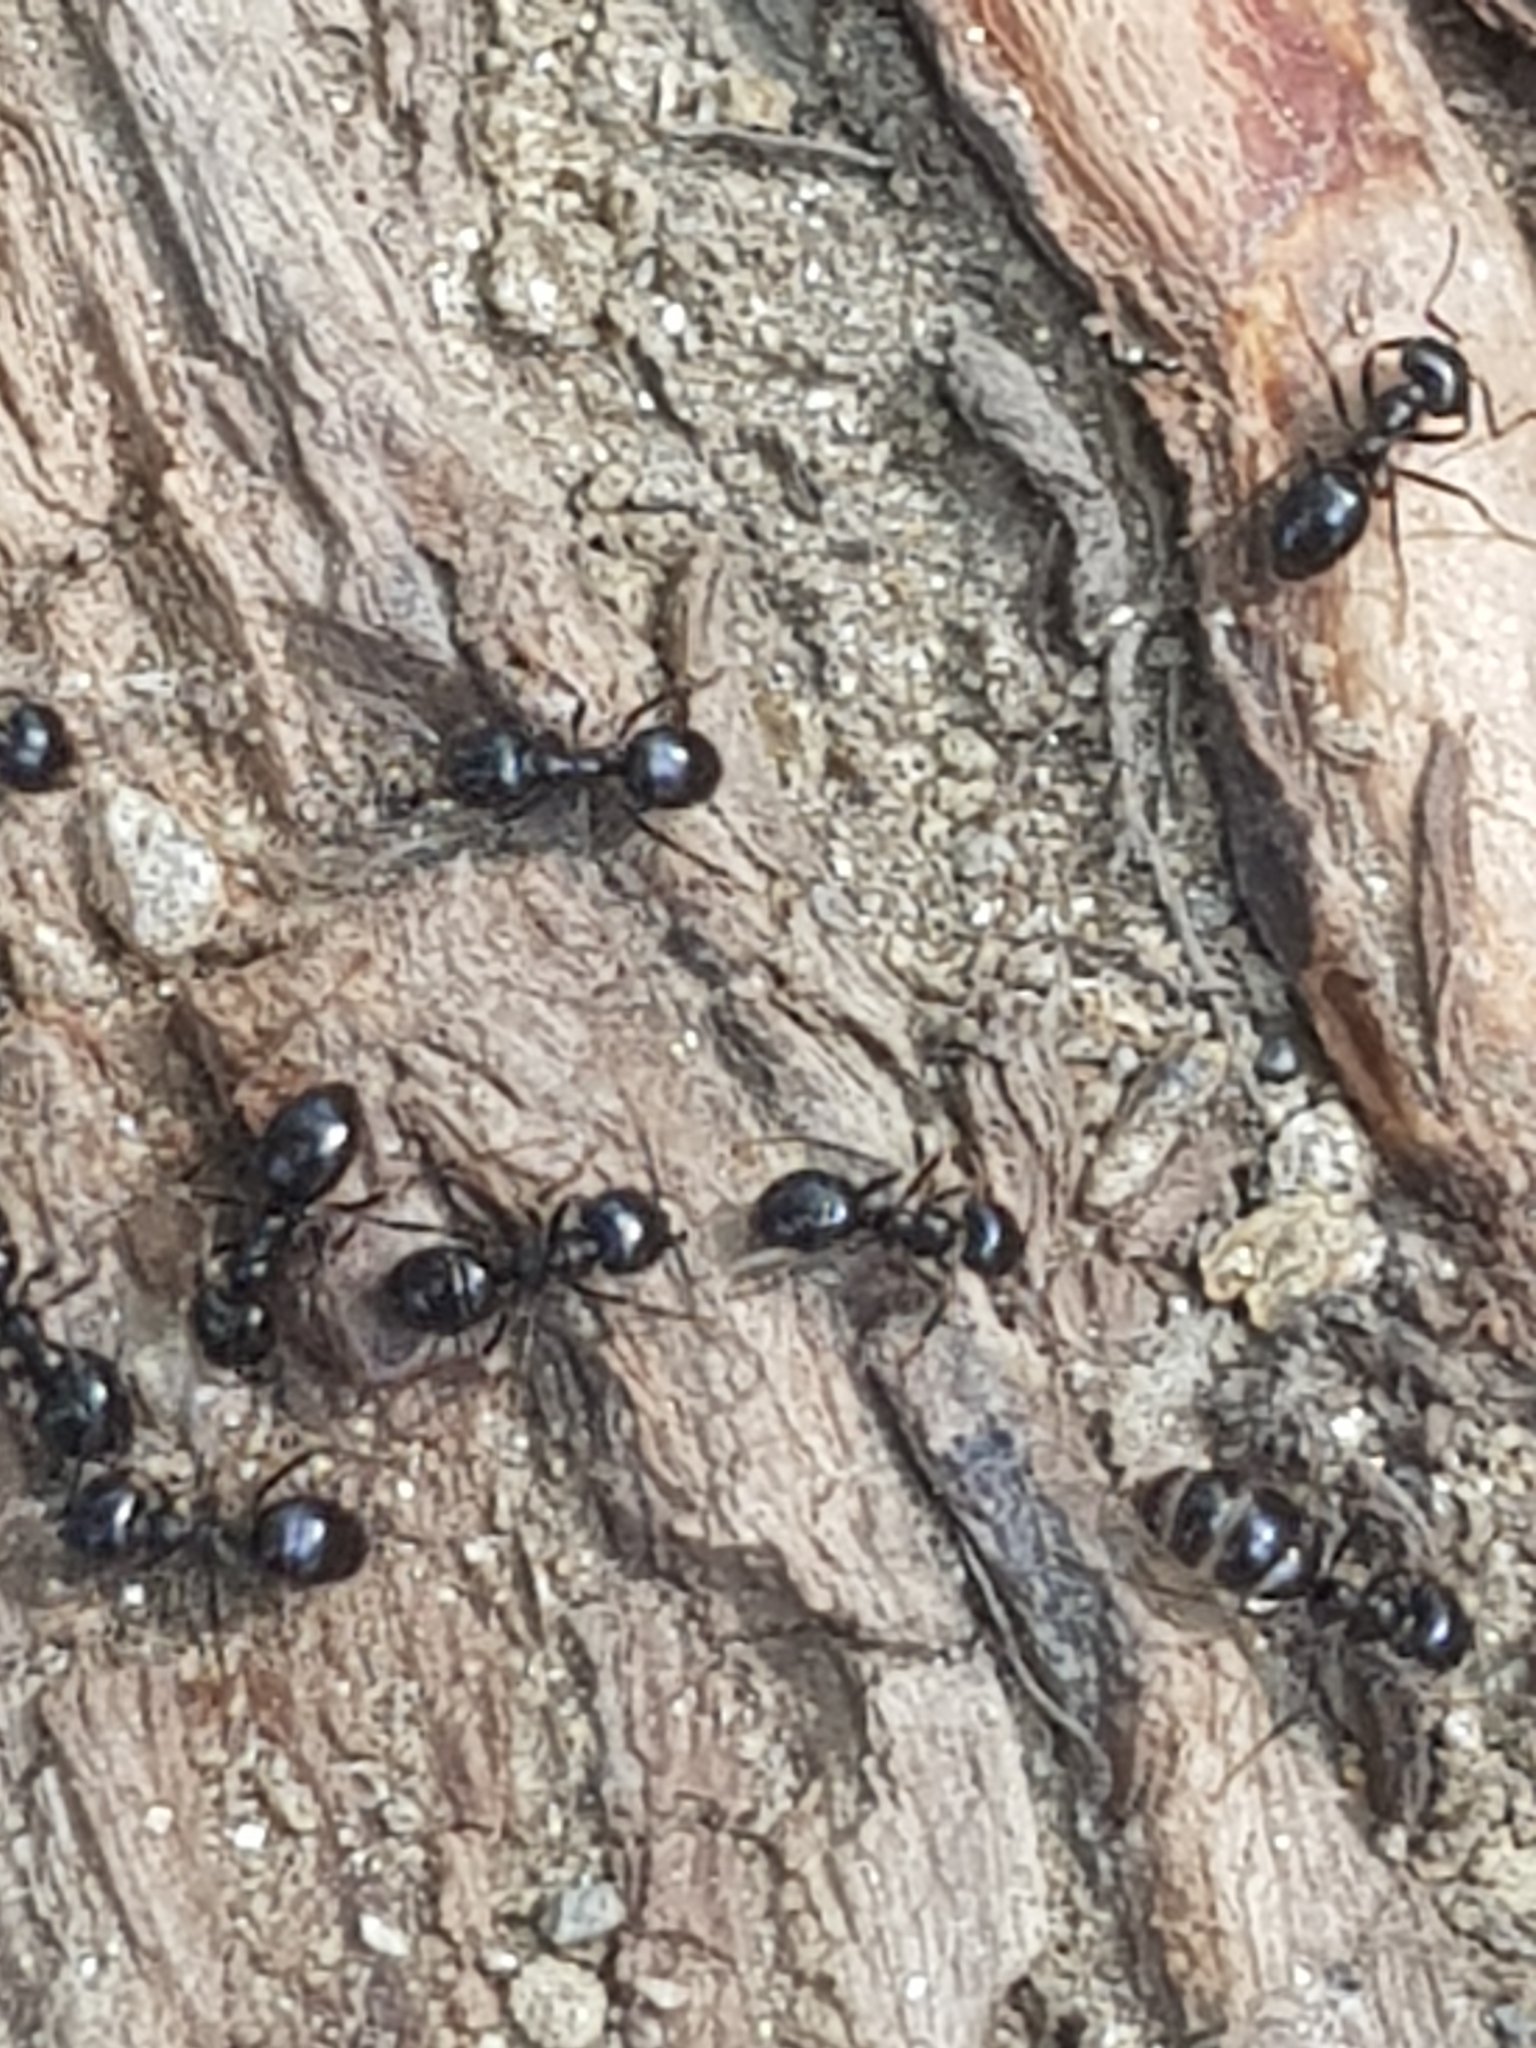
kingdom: Animalia
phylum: Arthropoda
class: Insecta
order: Hymenoptera
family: Formicidae
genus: Lasius
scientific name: Lasius fuliginosus
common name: Jet ant
